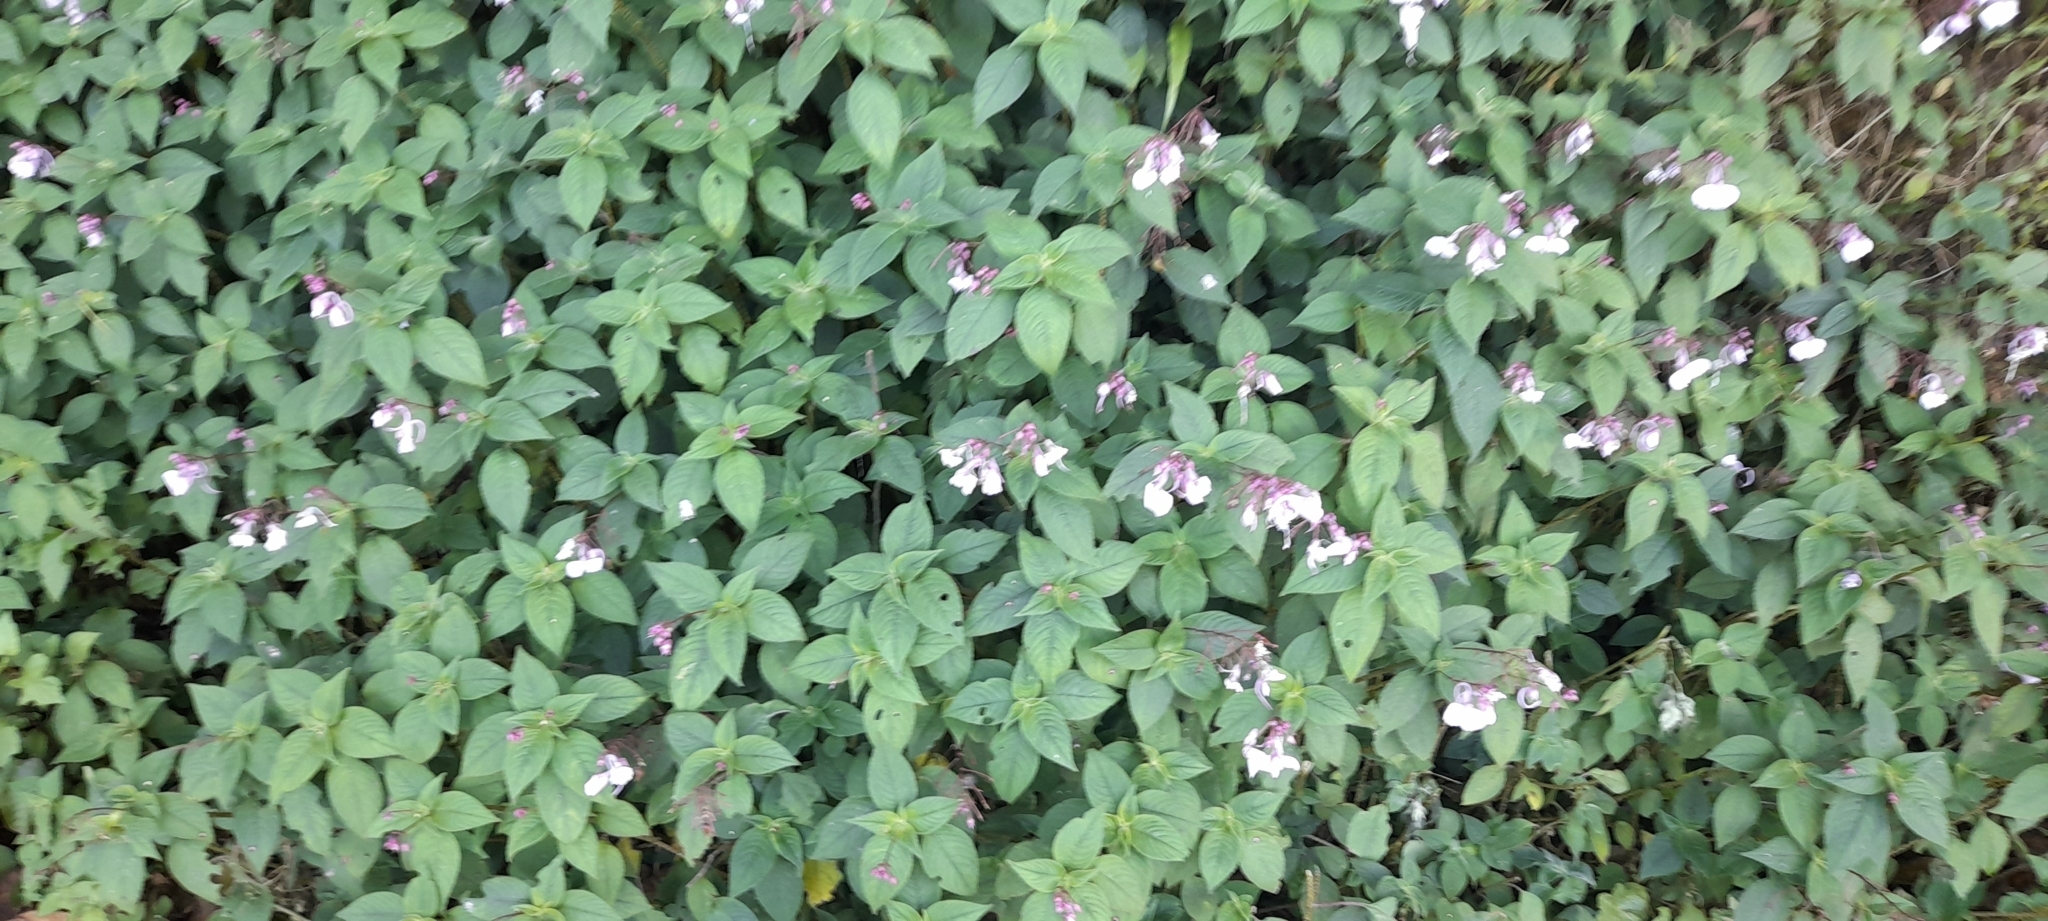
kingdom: Plantae
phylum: Tracheophyta
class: Magnoliopsida
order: Ericales
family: Balsaminaceae
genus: Impatiens
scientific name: Impatiens maculata
